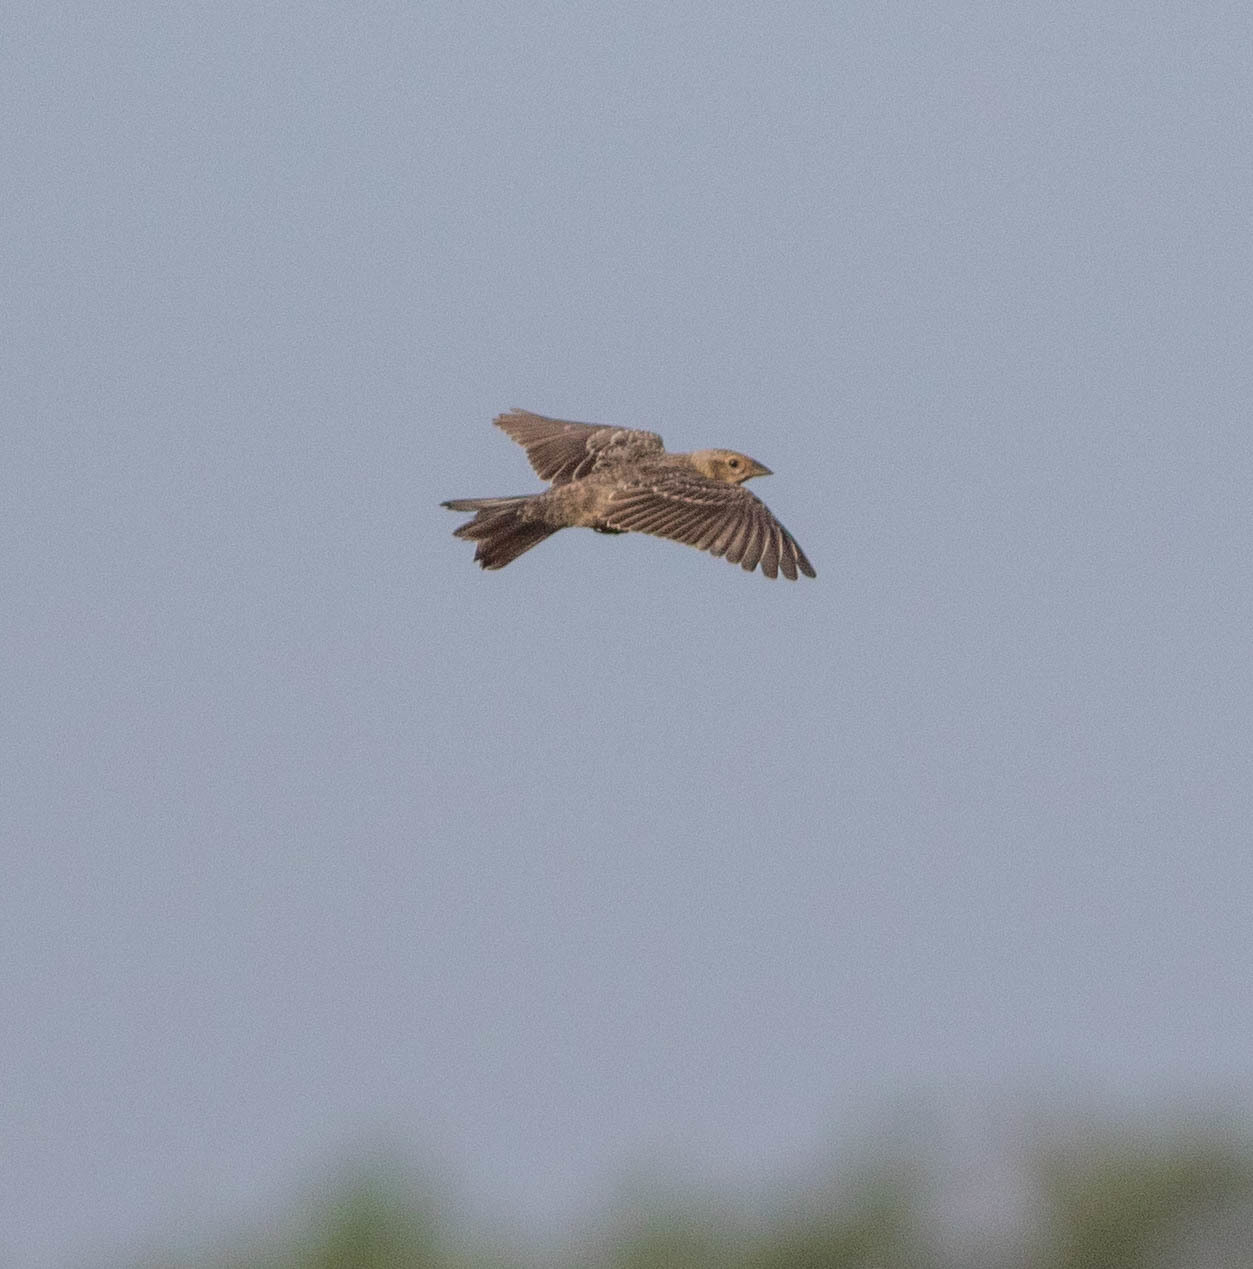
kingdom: Animalia
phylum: Chordata
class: Aves
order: Passeriformes
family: Icteridae
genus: Molothrus
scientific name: Molothrus ater
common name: Brown-headed cowbird
